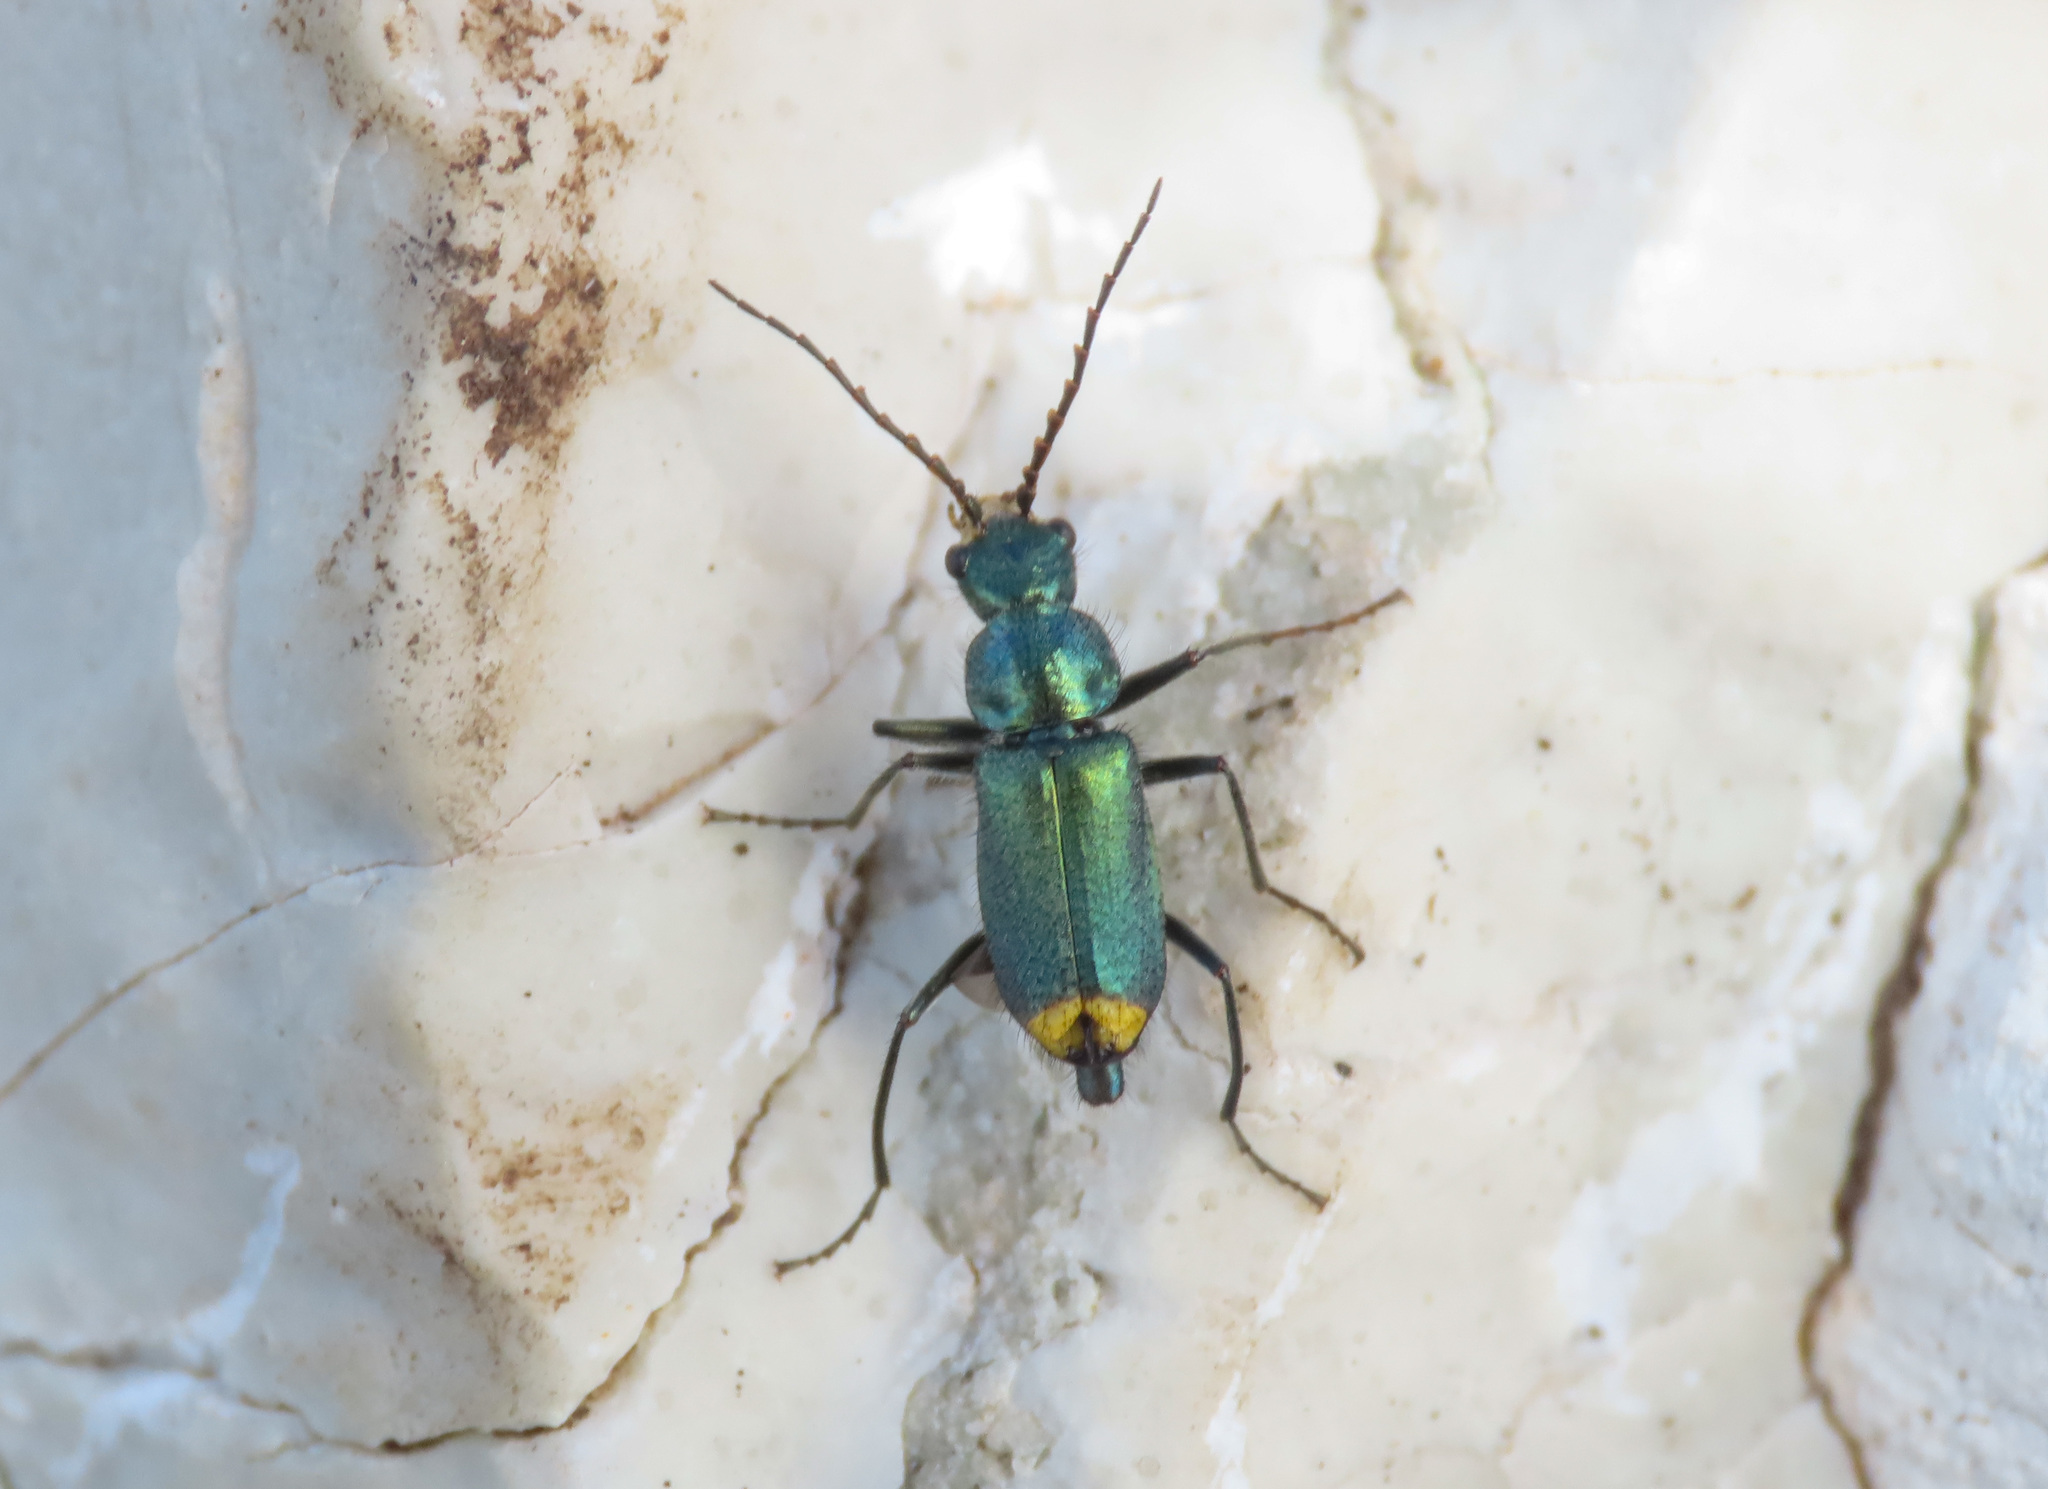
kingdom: Animalia
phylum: Arthropoda
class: Insecta
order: Coleoptera
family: Malachiidae
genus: Clanoptilus
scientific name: Clanoptilus italicus
